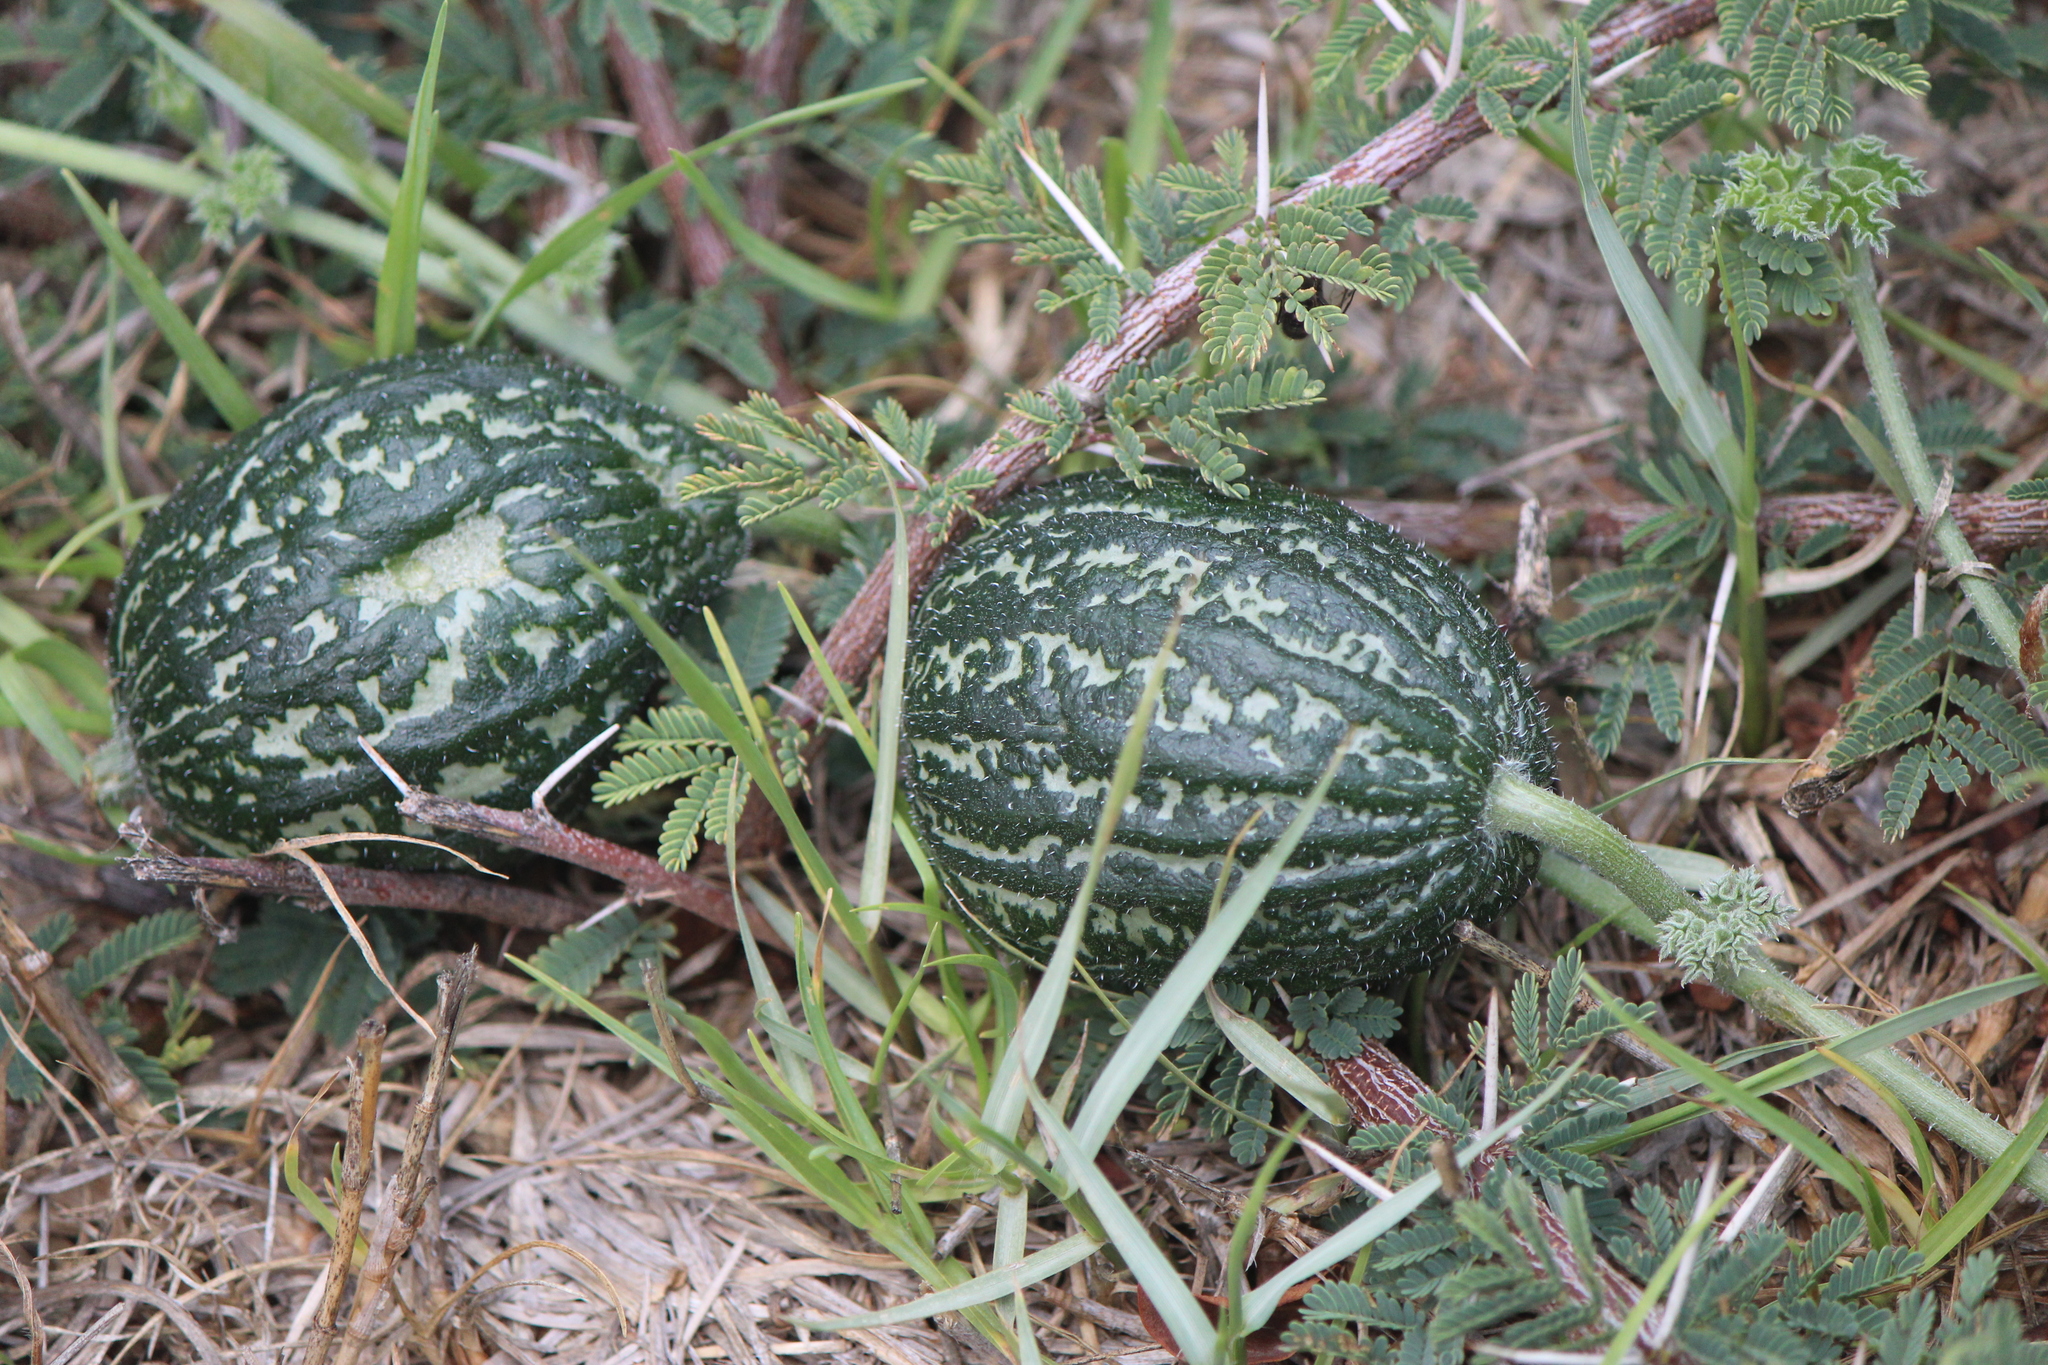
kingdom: Plantae
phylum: Tracheophyta
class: Magnoliopsida
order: Cucurbitales
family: Cucurbitaceae
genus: Apodanthera
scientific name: Apodanthera undulata
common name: Melon-loco
